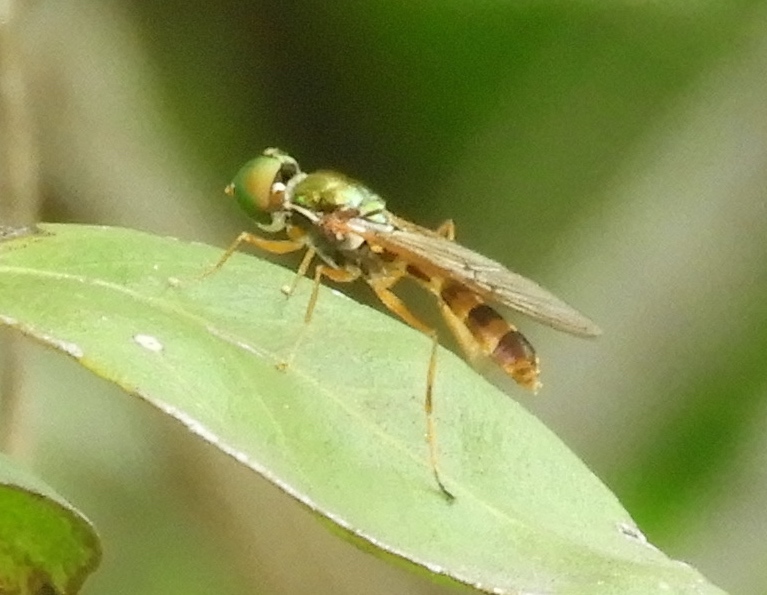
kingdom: Animalia
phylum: Arthropoda
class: Insecta
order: Diptera
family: Stratiomyidae
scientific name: Stratiomyidae
